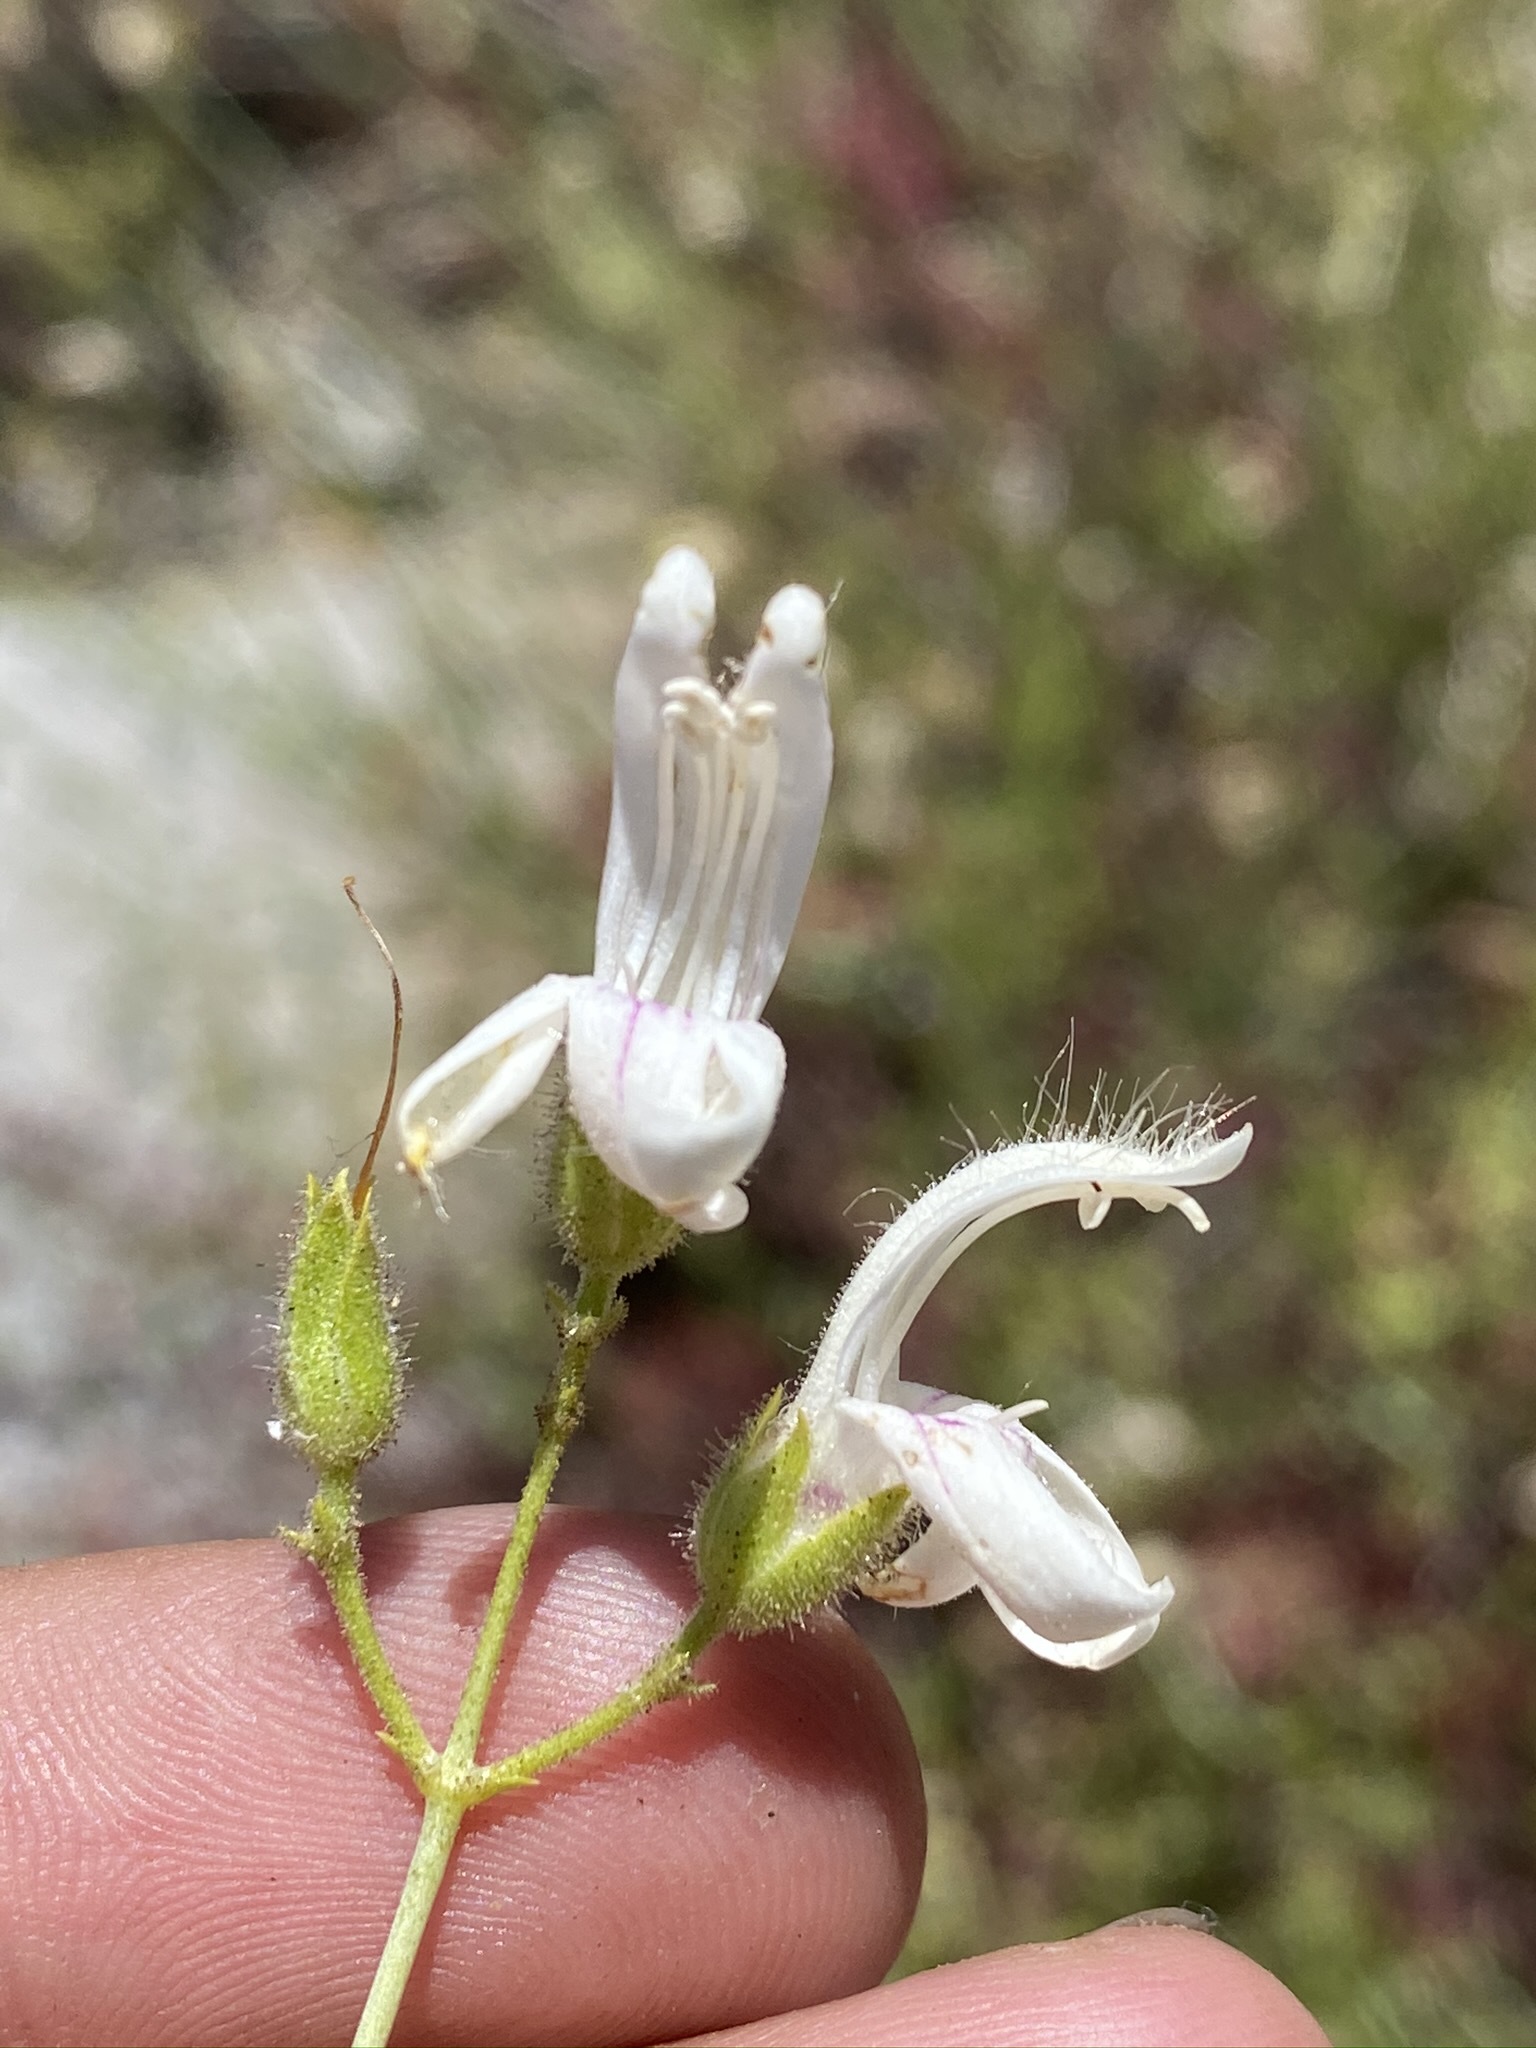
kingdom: Plantae
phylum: Tracheophyta
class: Magnoliopsida
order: Lamiales
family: Plantaginaceae
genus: Keckiella
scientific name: Keckiella breviflora
